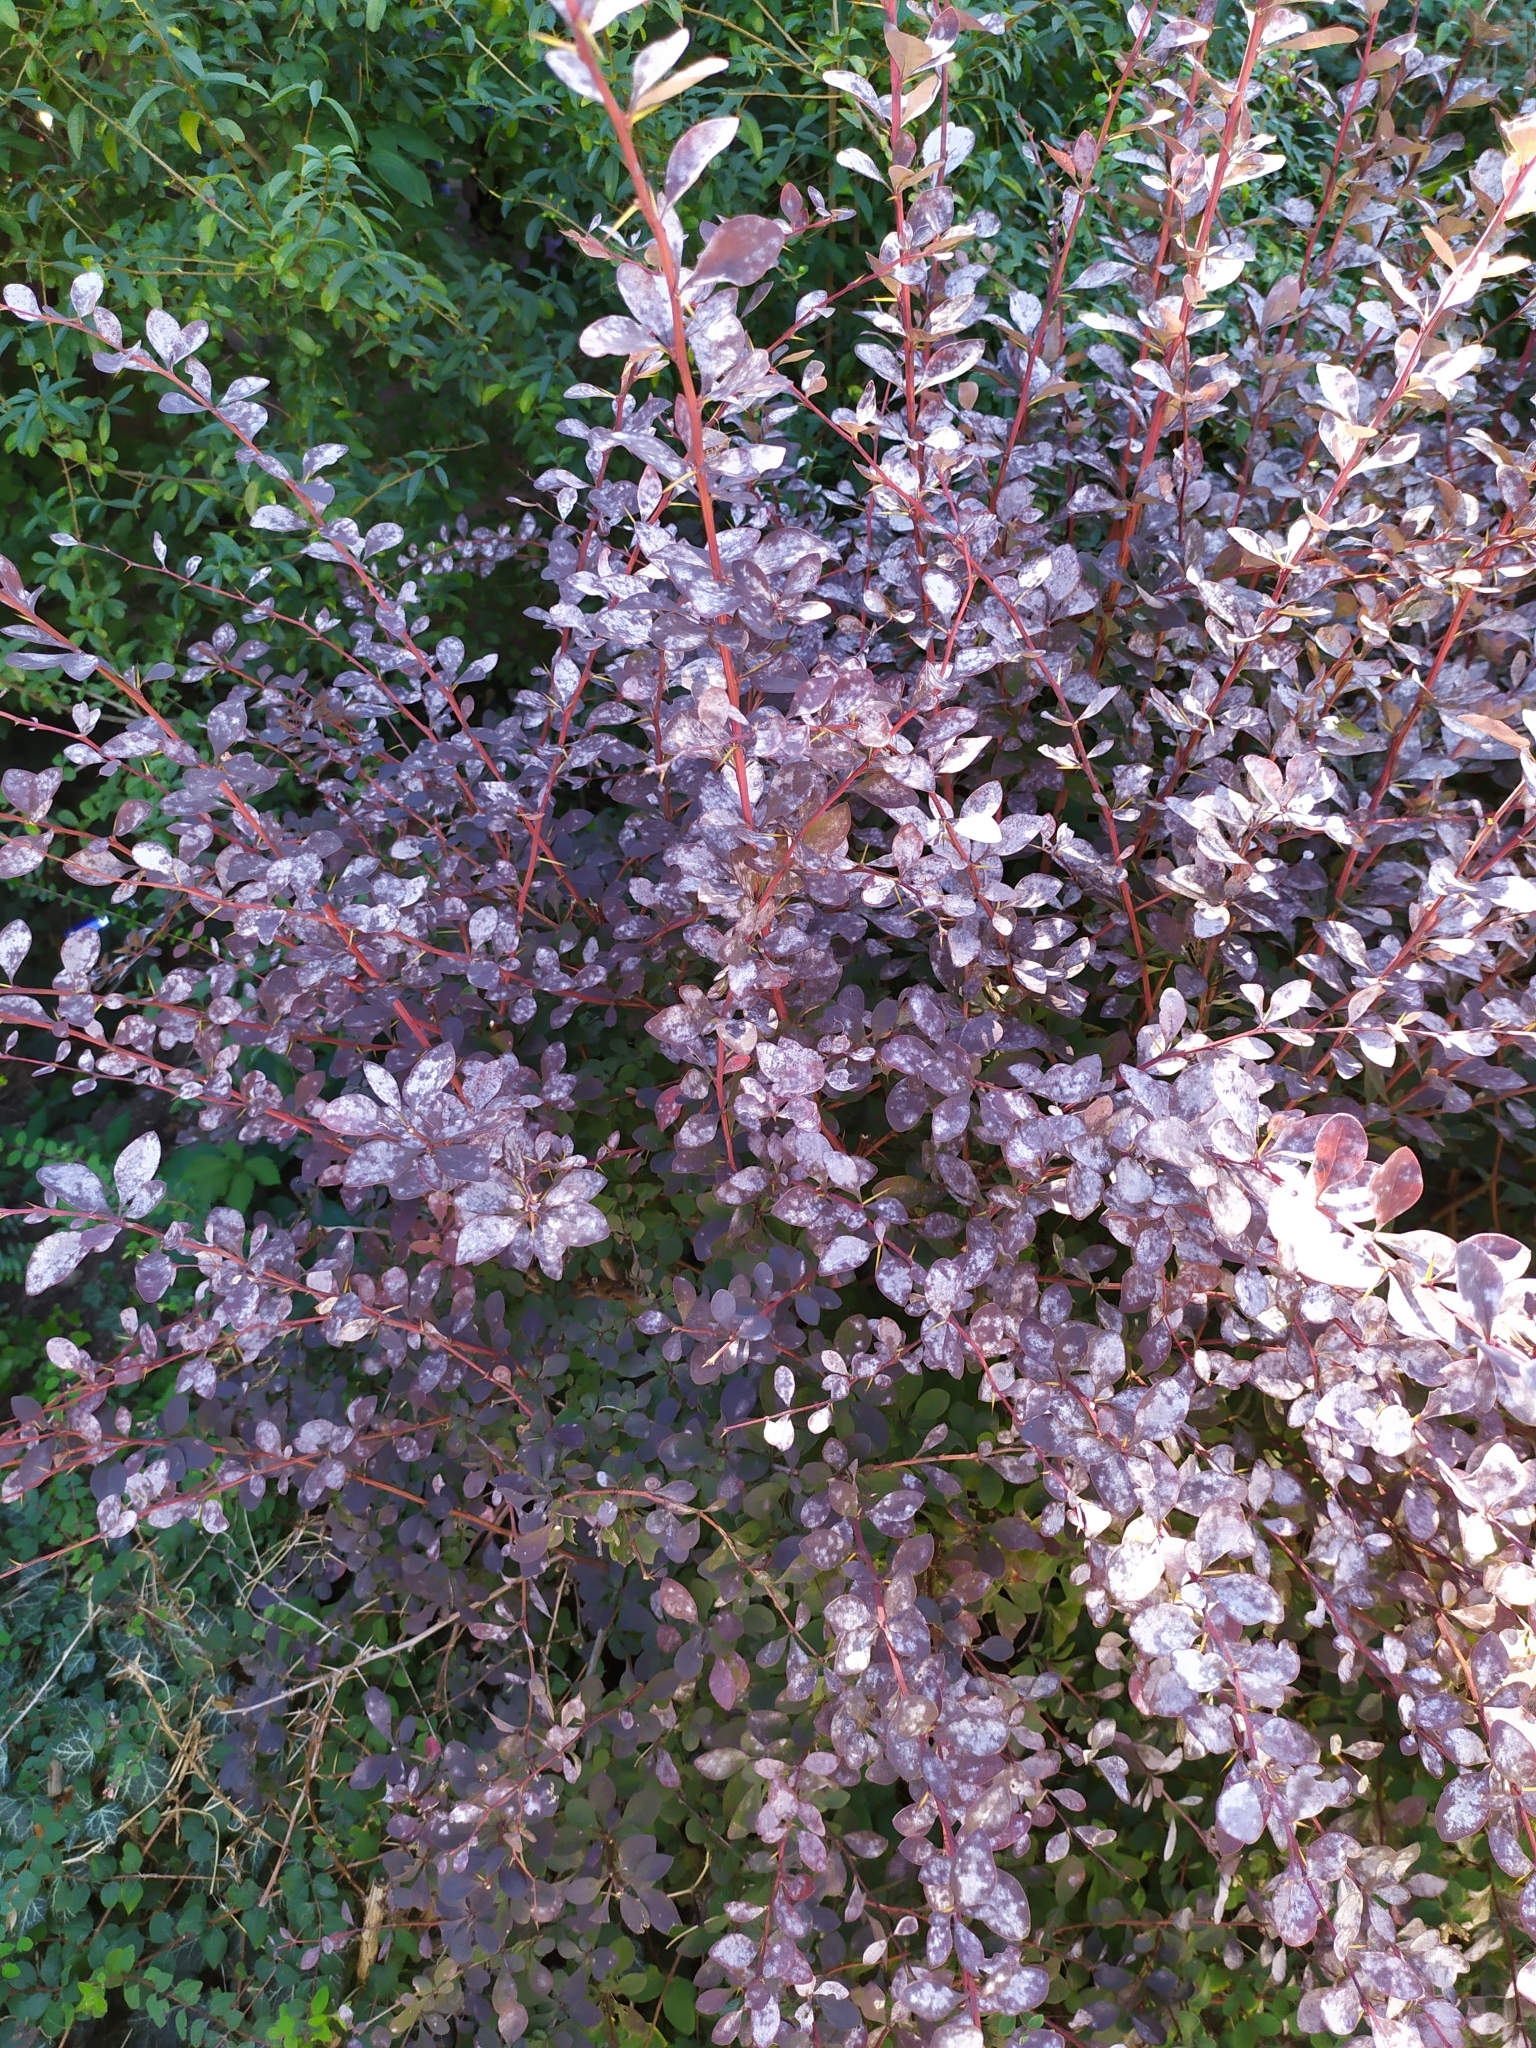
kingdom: Fungi
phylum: Ascomycota
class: Leotiomycetes
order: Helotiales
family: Erysiphaceae
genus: Erysiphe
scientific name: Erysiphe berberidis
